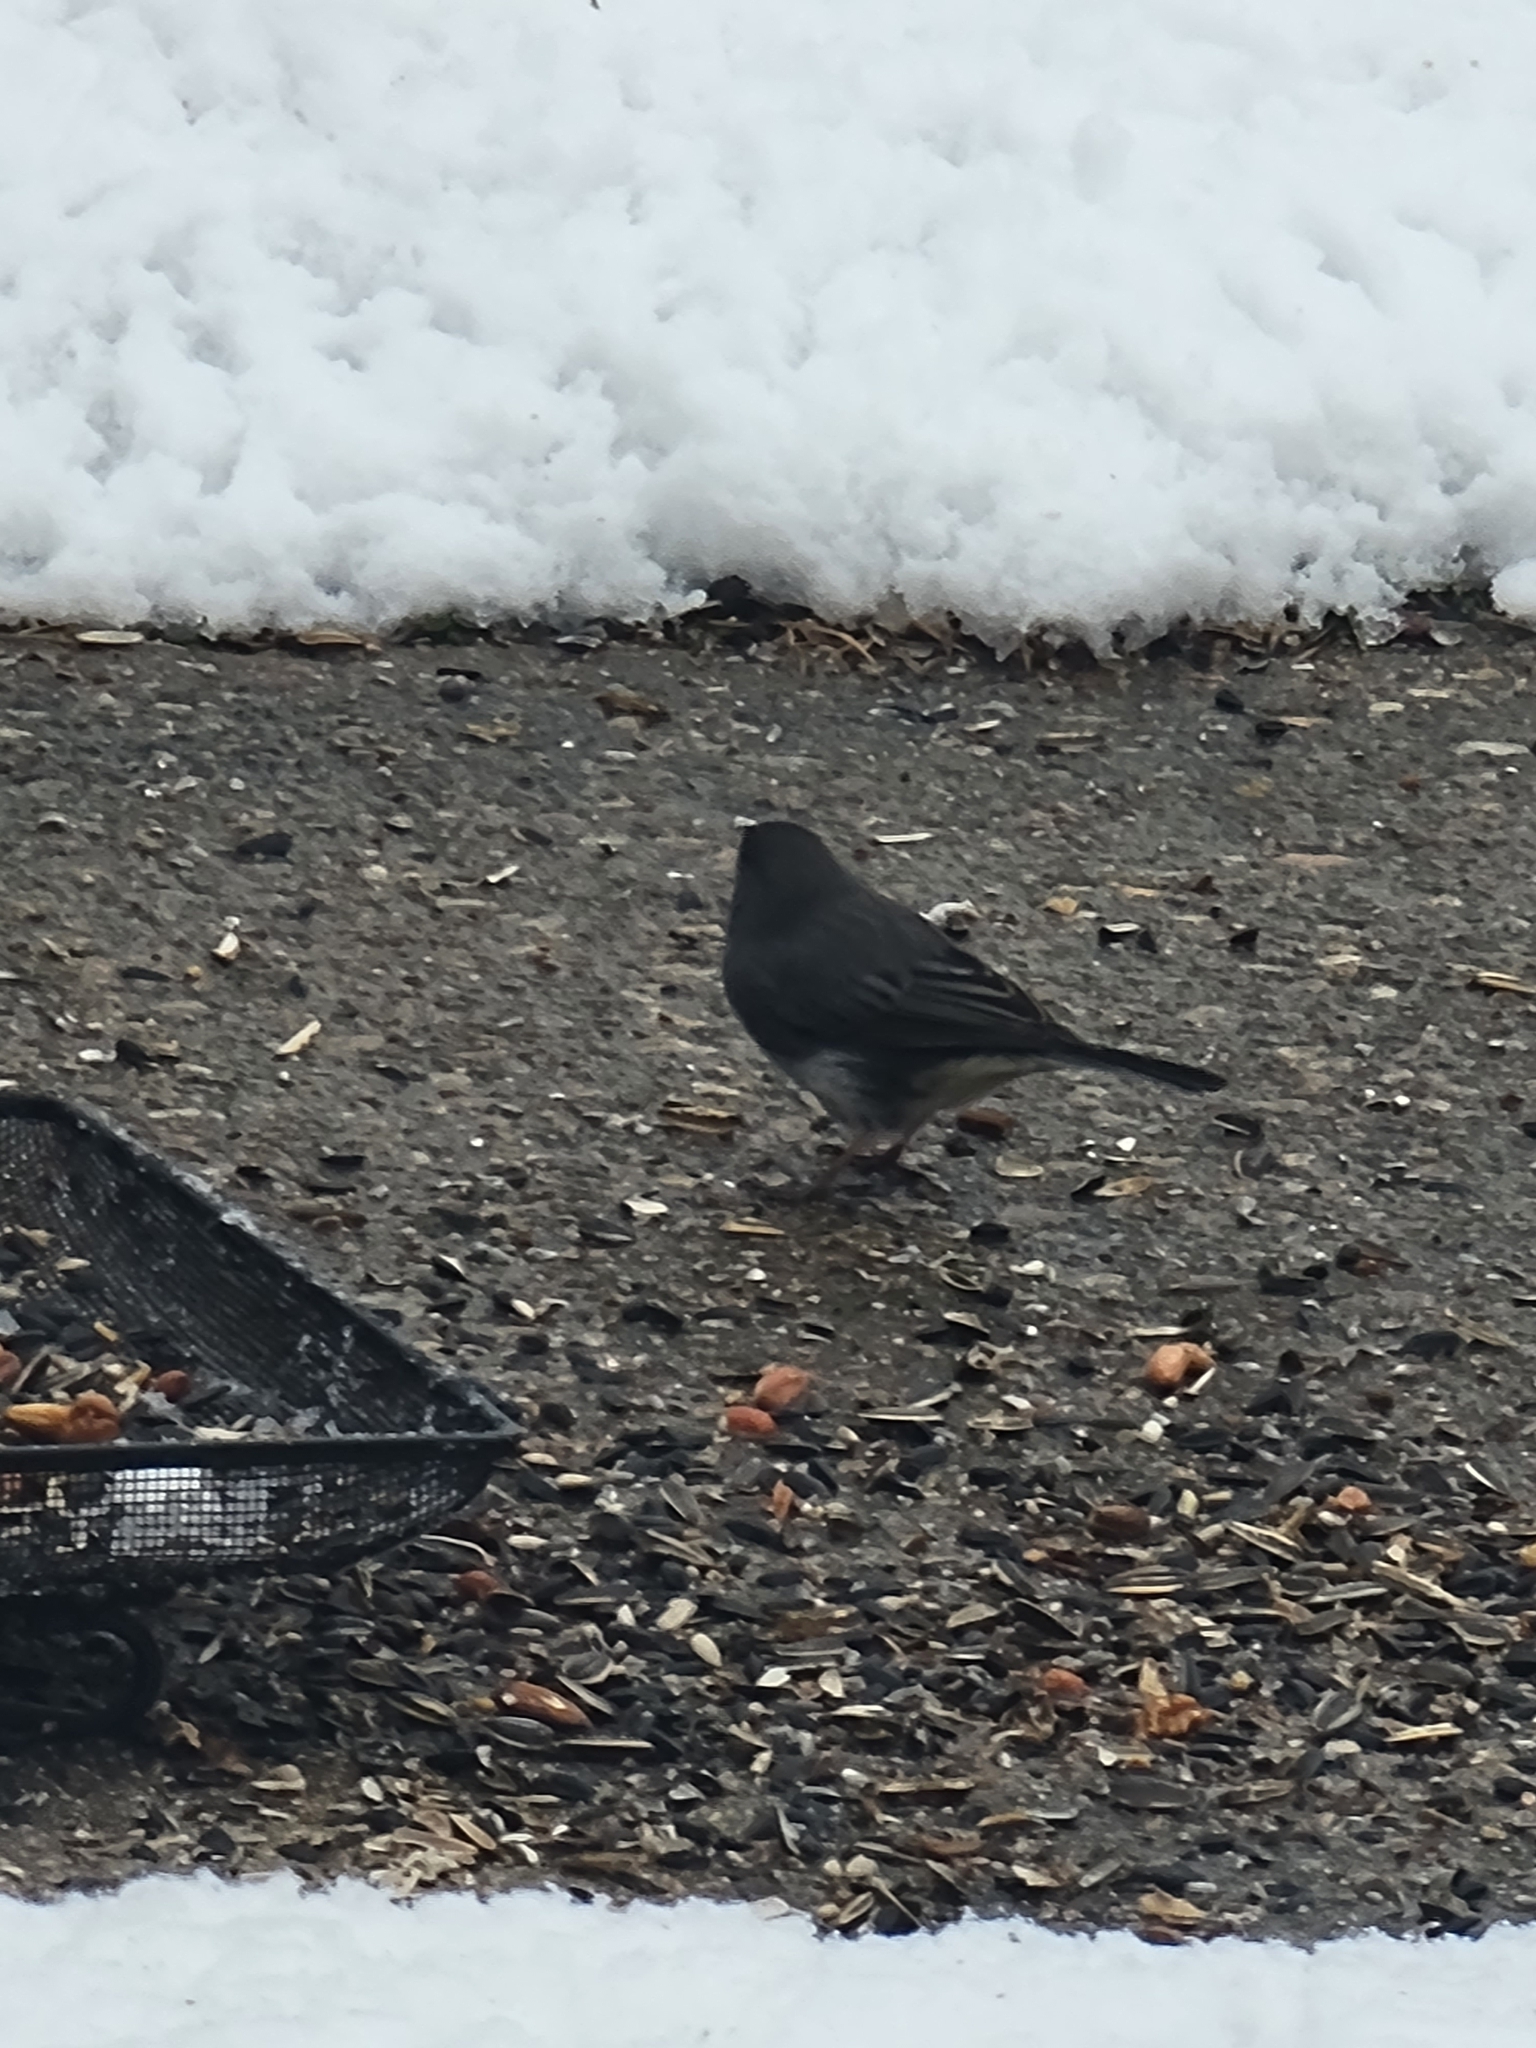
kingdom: Animalia
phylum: Chordata
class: Aves
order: Passeriformes
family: Passerellidae
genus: Junco
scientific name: Junco hyemalis
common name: Dark-eyed junco
